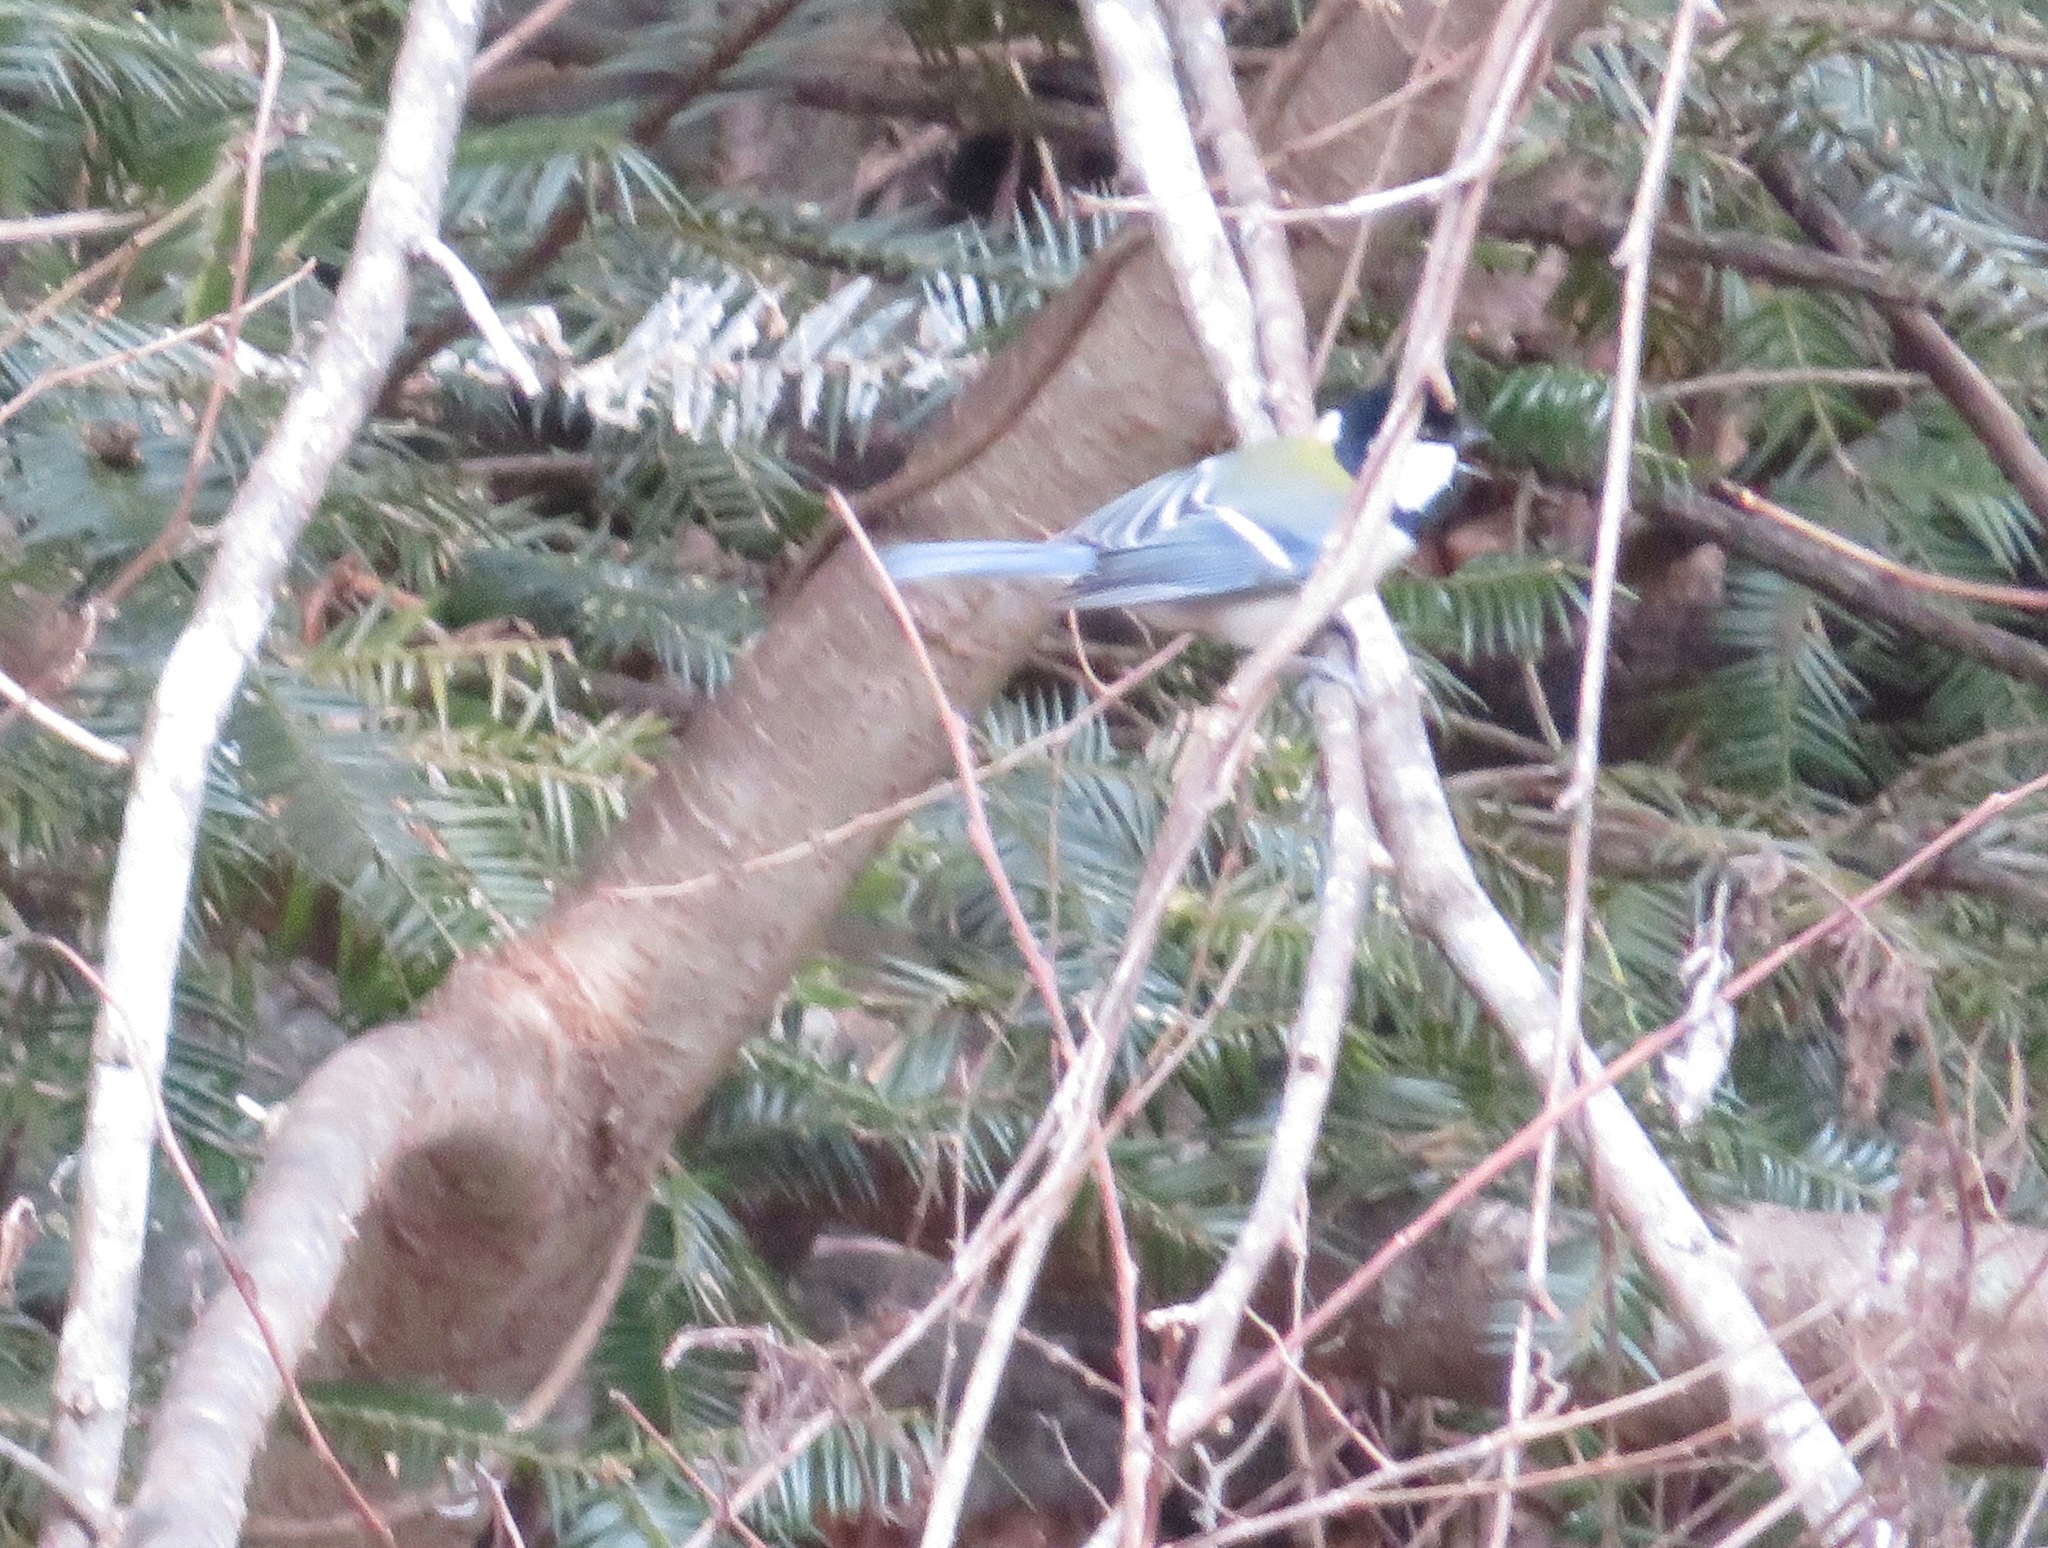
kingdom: Animalia
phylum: Chordata
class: Aves
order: Passeriformes
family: Paridae
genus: Parus
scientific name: Parus minor
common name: Japanese tit
